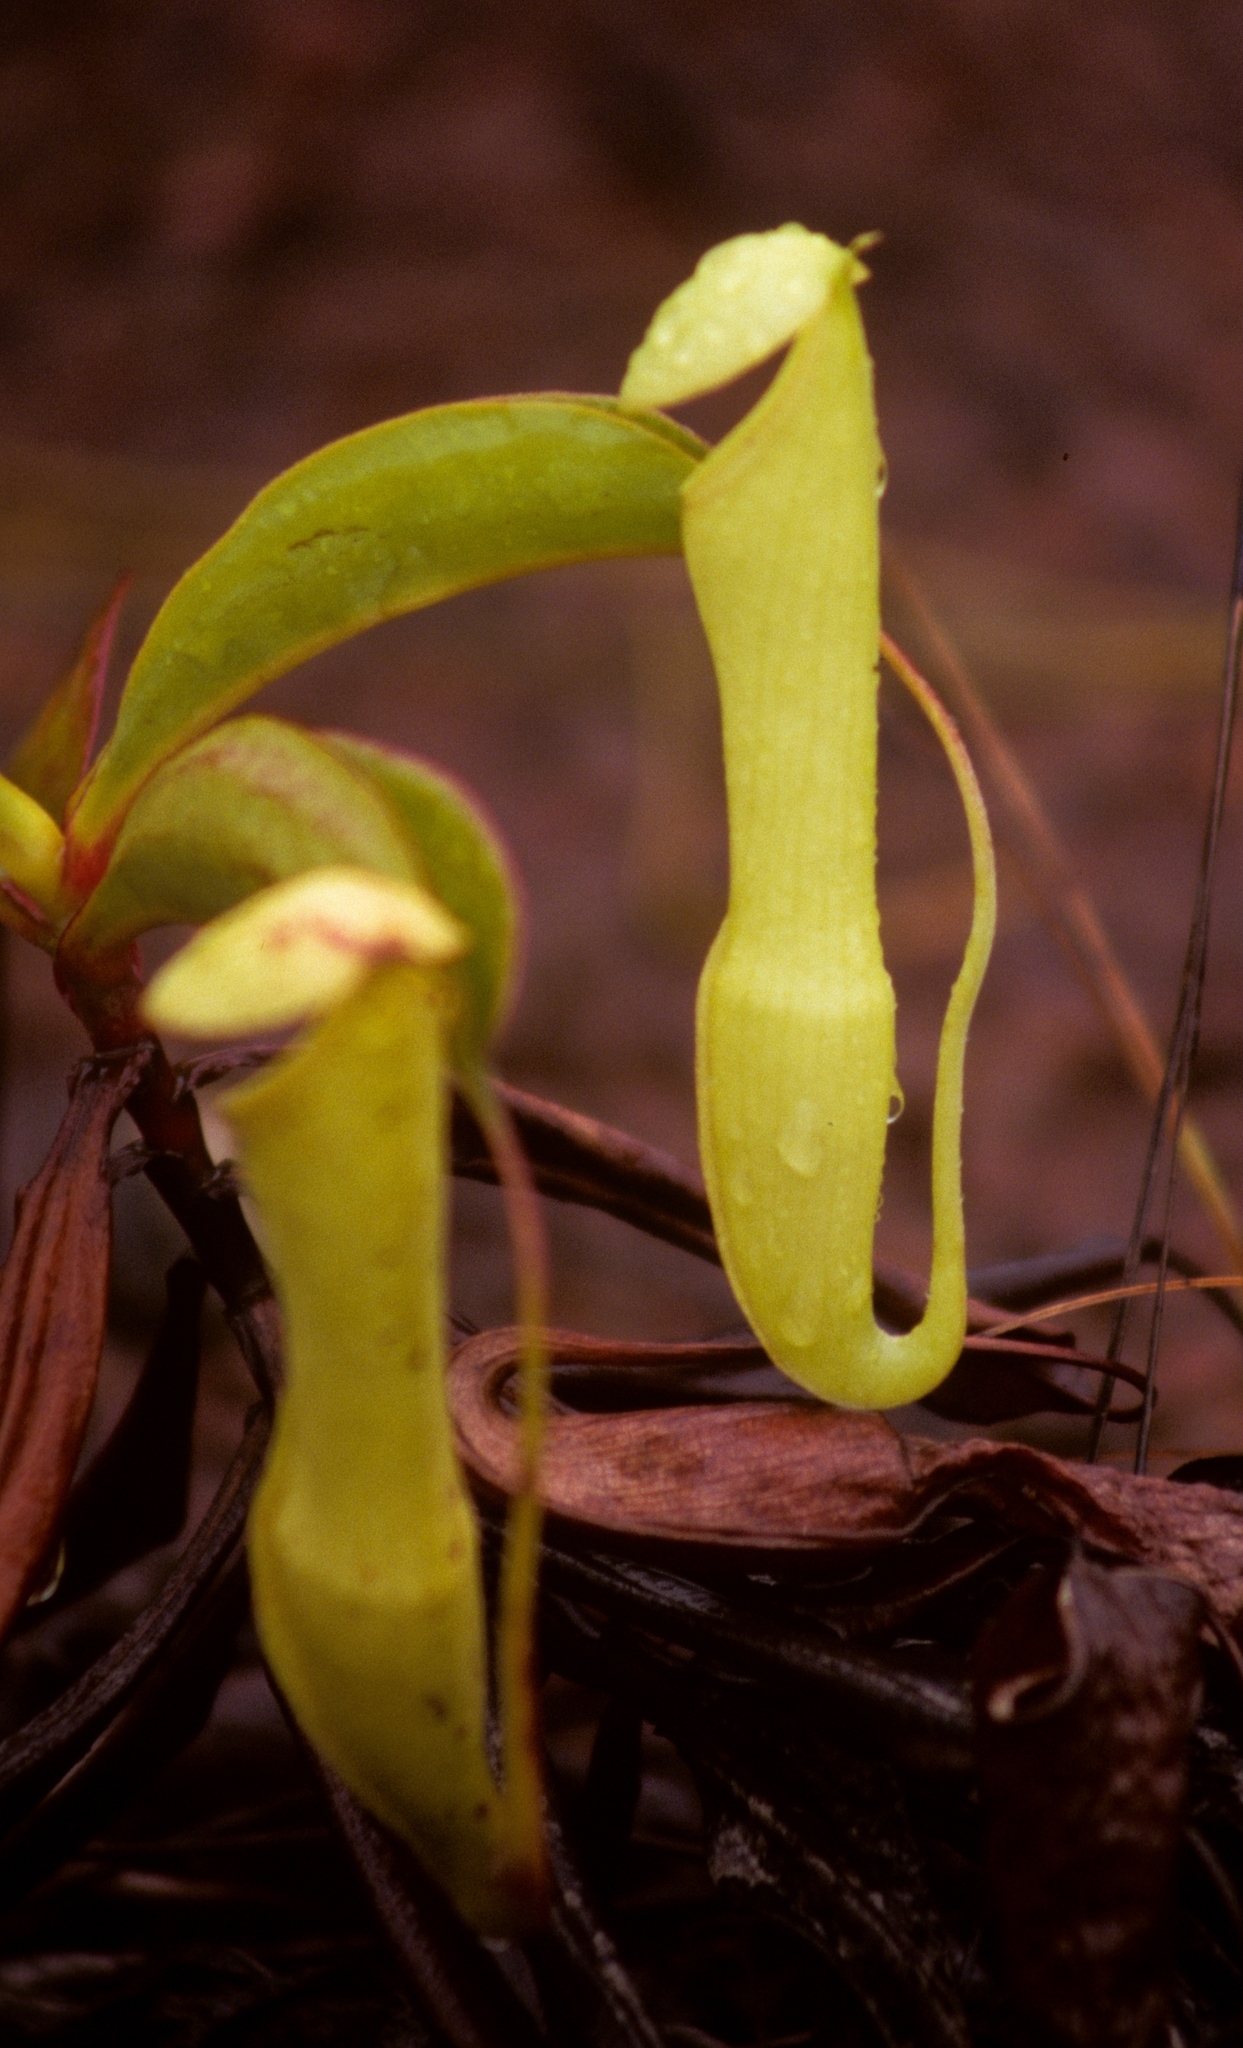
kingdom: Plantae
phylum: Tracheophyta
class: Magnoliopsida
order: Caryophyllales
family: Nepenthaceae
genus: Nepenthes
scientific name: Nepenthes mirabilis
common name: Tropical pitcherplant
